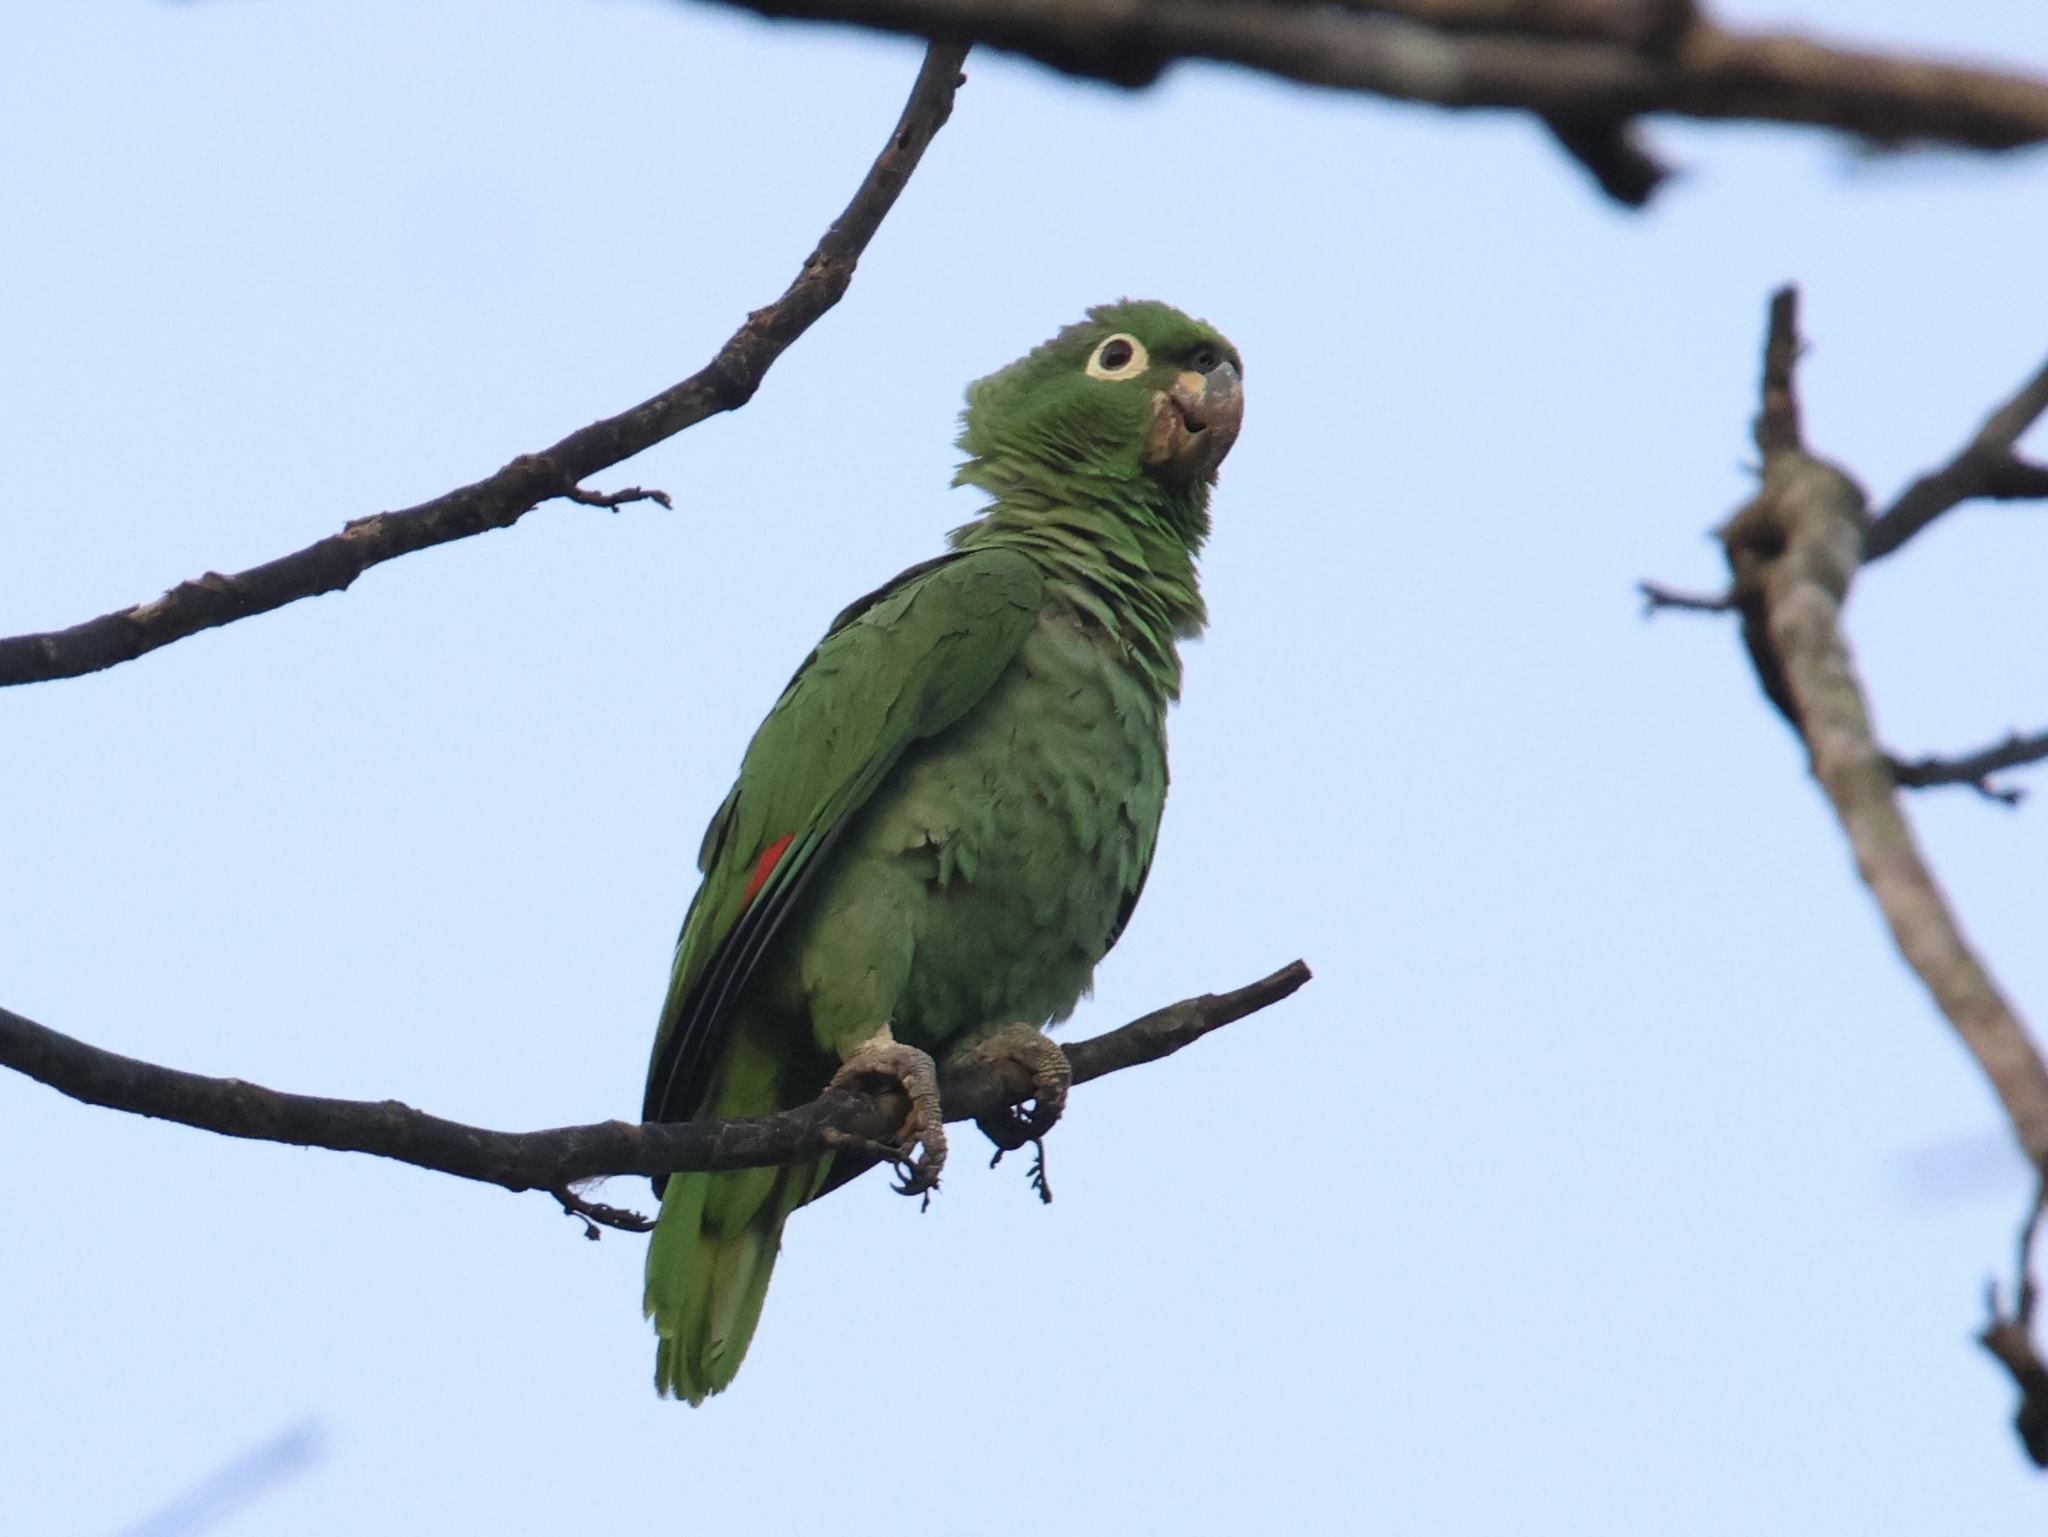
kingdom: Animalia
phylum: Chordata
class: Aves
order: Psittaciformes
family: Psittacidae
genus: Amazona
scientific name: Amazona farinosa
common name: Mealy parrot
